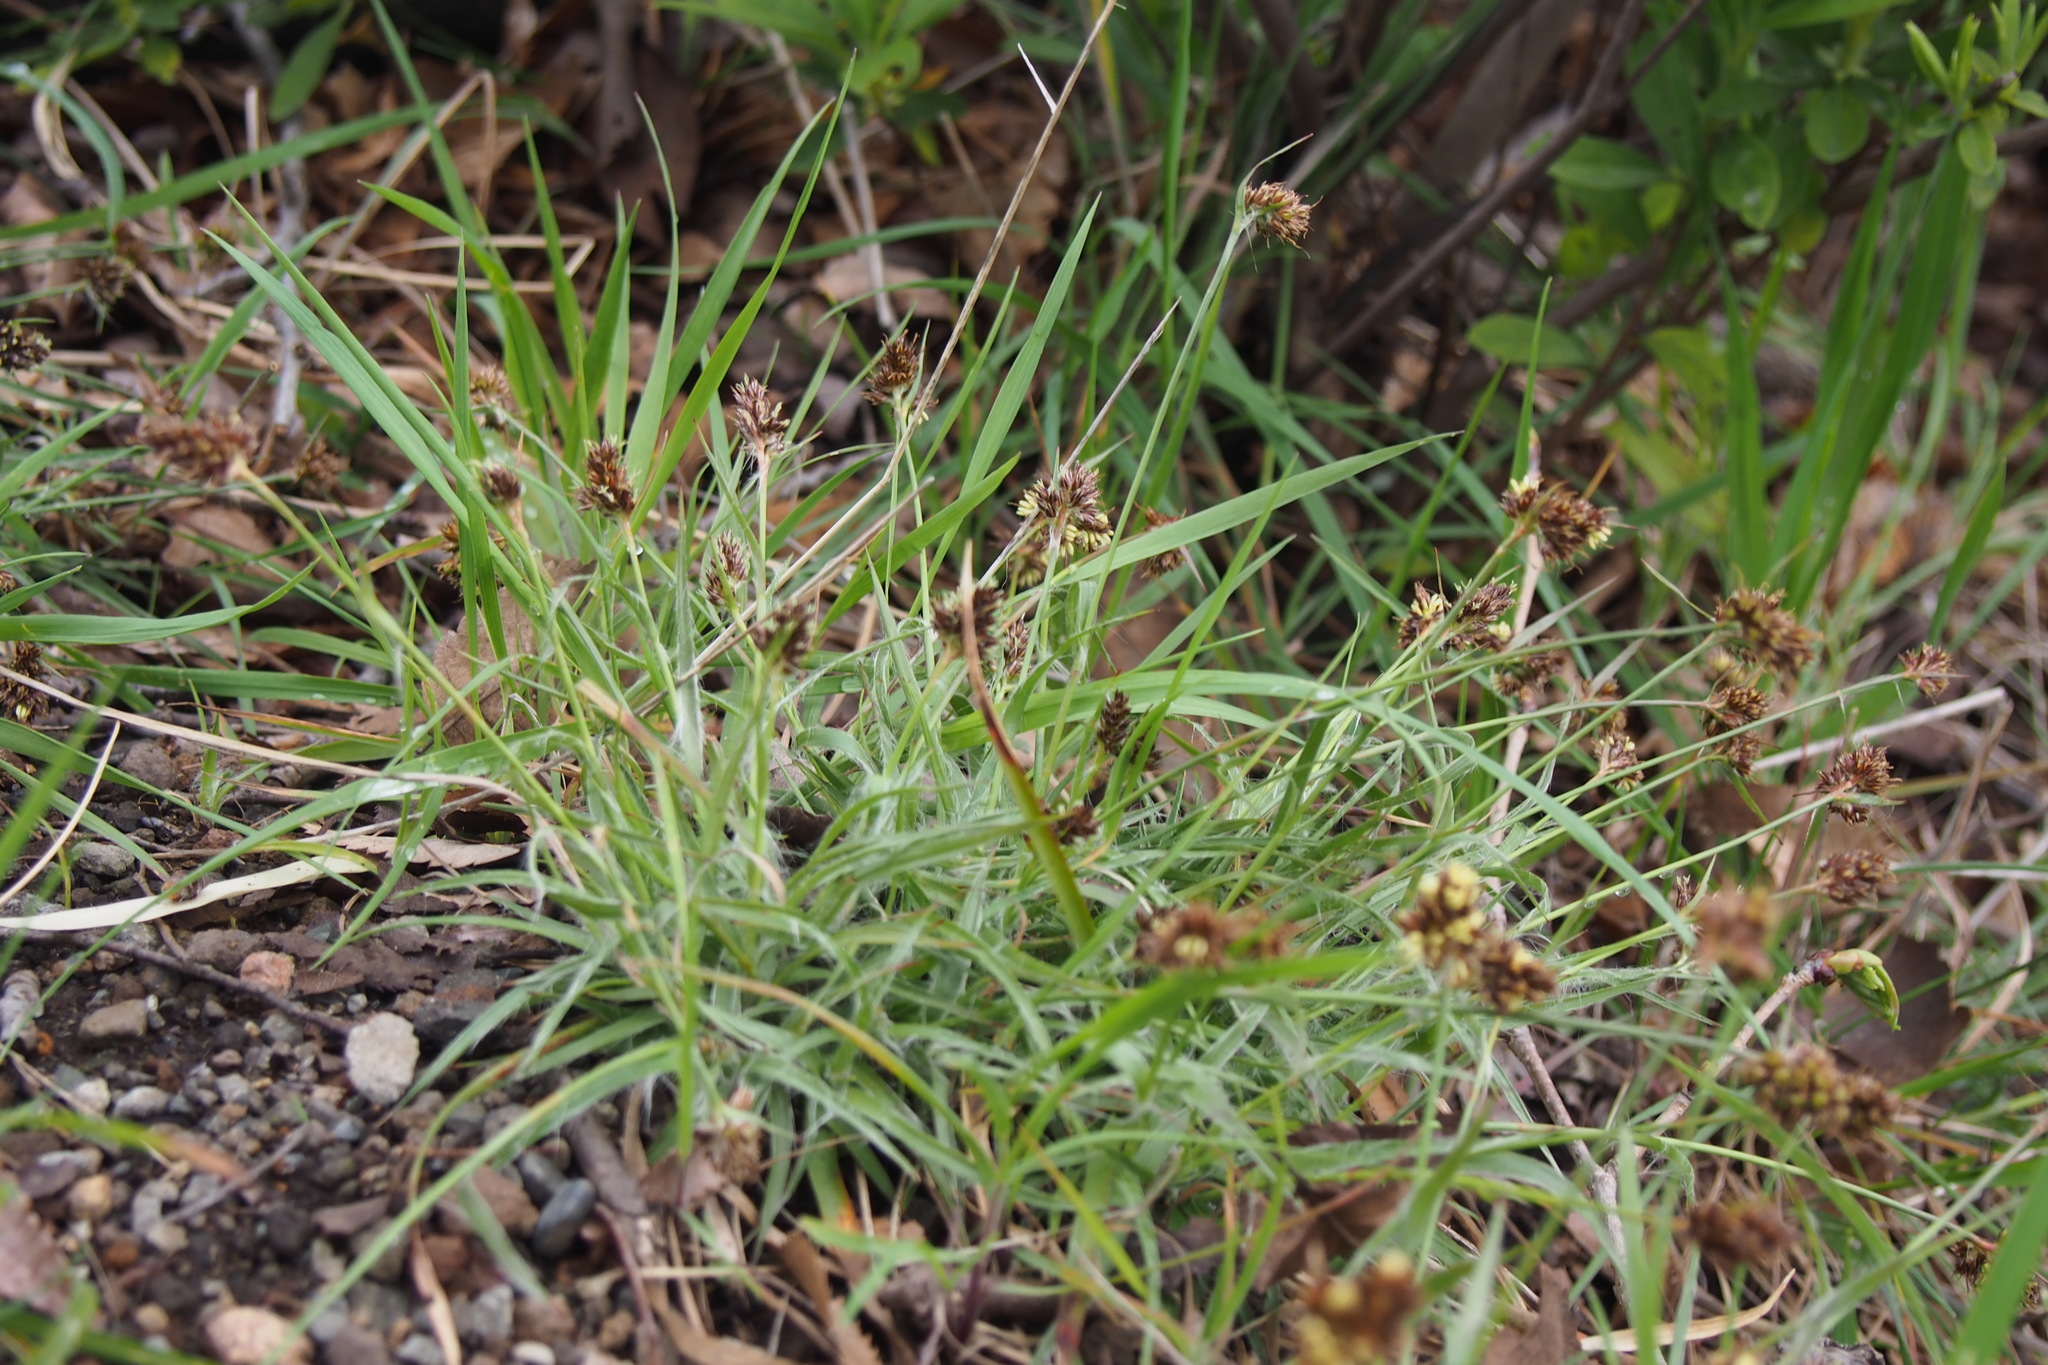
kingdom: Plantae
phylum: Tracheophyta
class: Liliopsida
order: Poales
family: Juncaceae
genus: Luzula
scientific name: Luzula capitata
